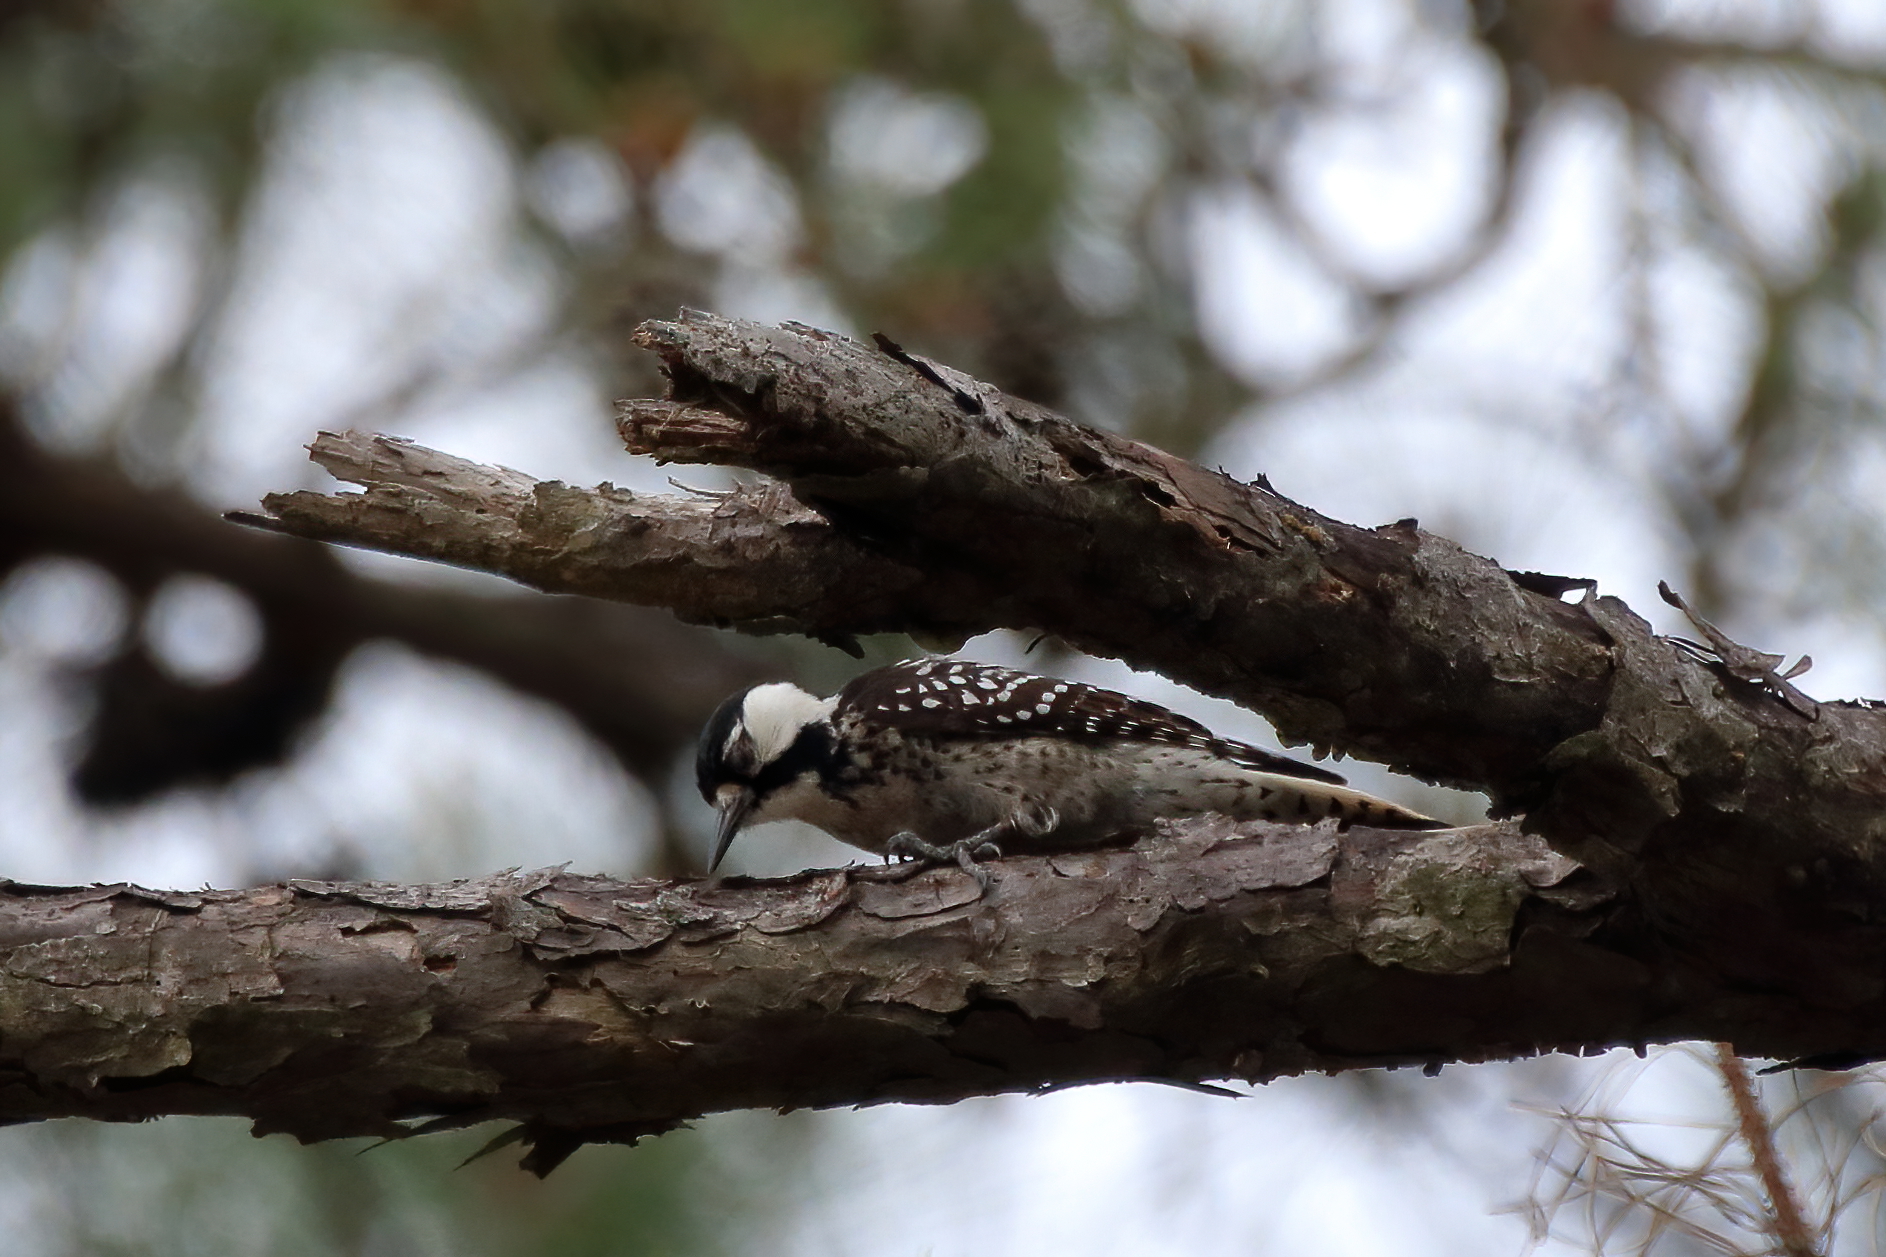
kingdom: Animalia
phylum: Chordata
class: Aves
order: Piciformes
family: Picidae
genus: Leuconotopicus
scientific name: Leuconotopicus borealis
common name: Red-cockaded woodpecker
